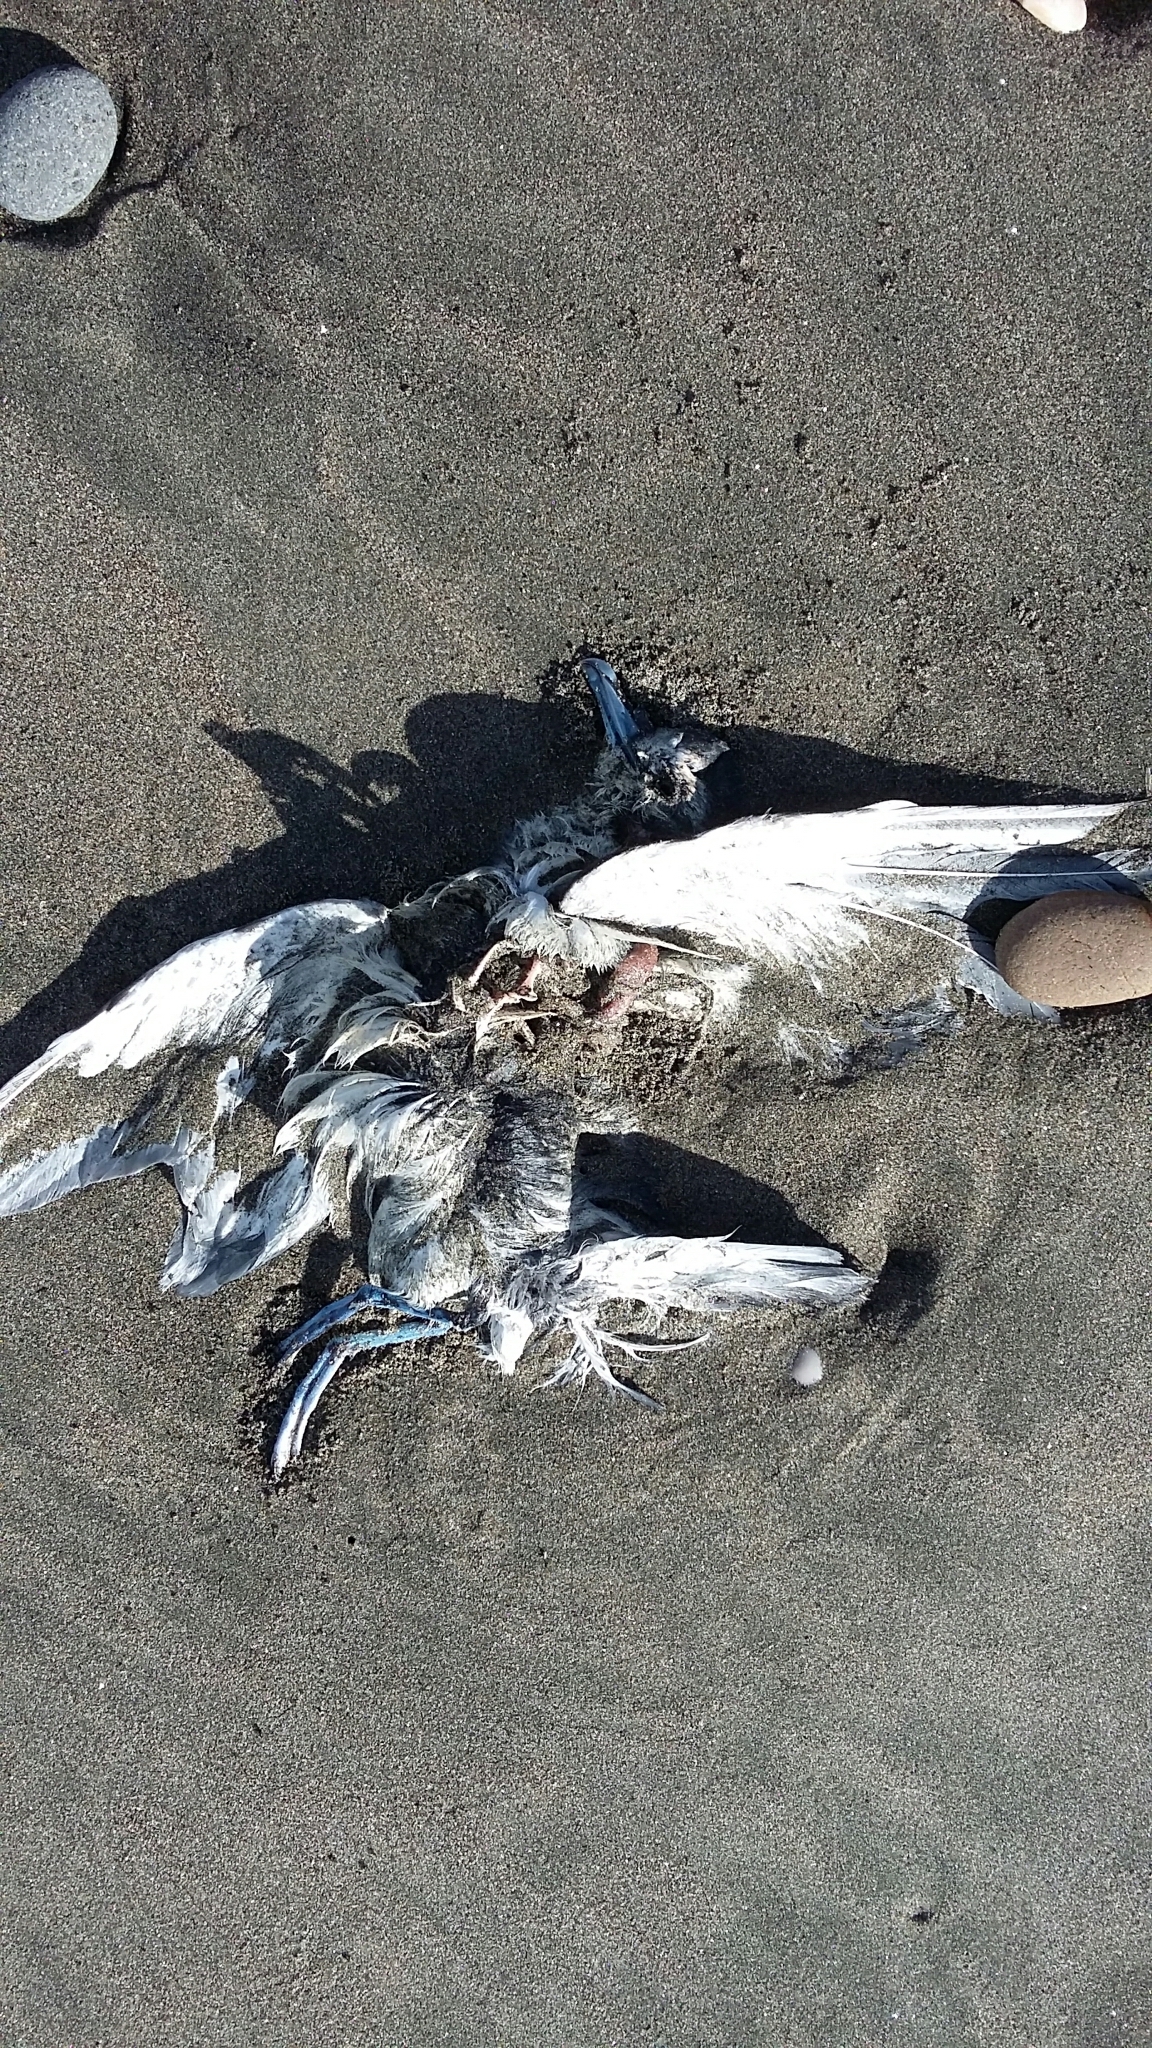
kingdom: Animalia
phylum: Chordata
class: Aves
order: Procellariiformes
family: Procellariidae
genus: Pachyptila
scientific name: Pachyptila turtur
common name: Fairy prion
